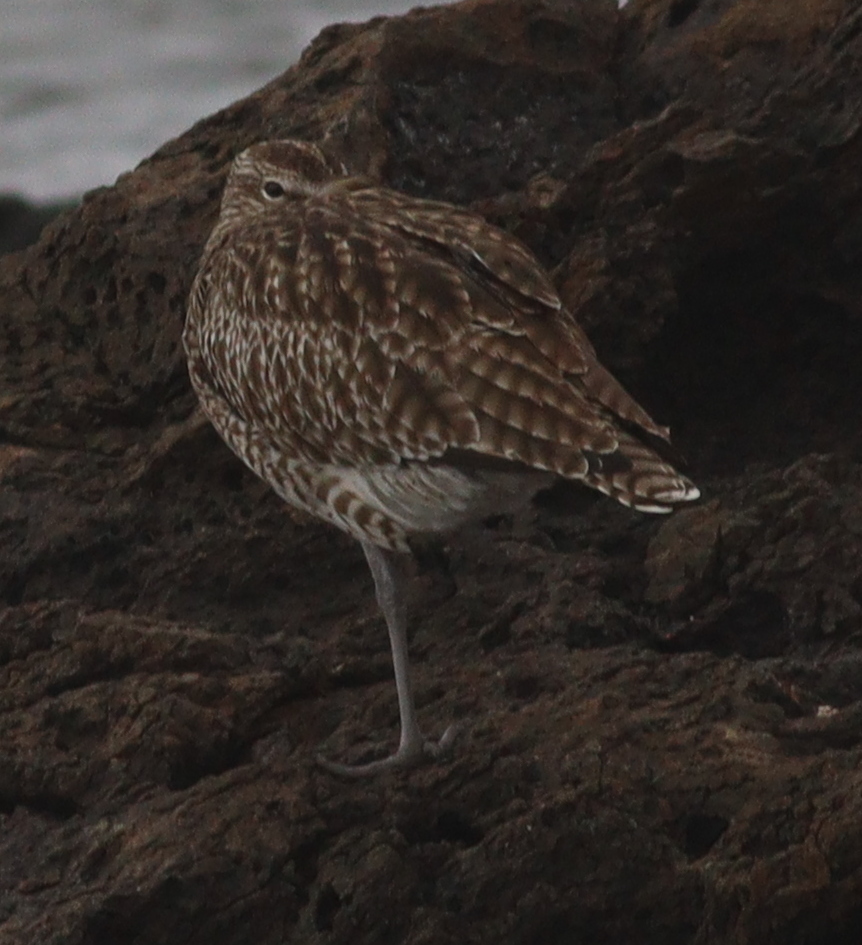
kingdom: Animalia
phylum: Chordata
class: Aves
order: Charadriiformes
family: Scolopacidae
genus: Numenius
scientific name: Numenius phaeopus
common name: Whimbrel
